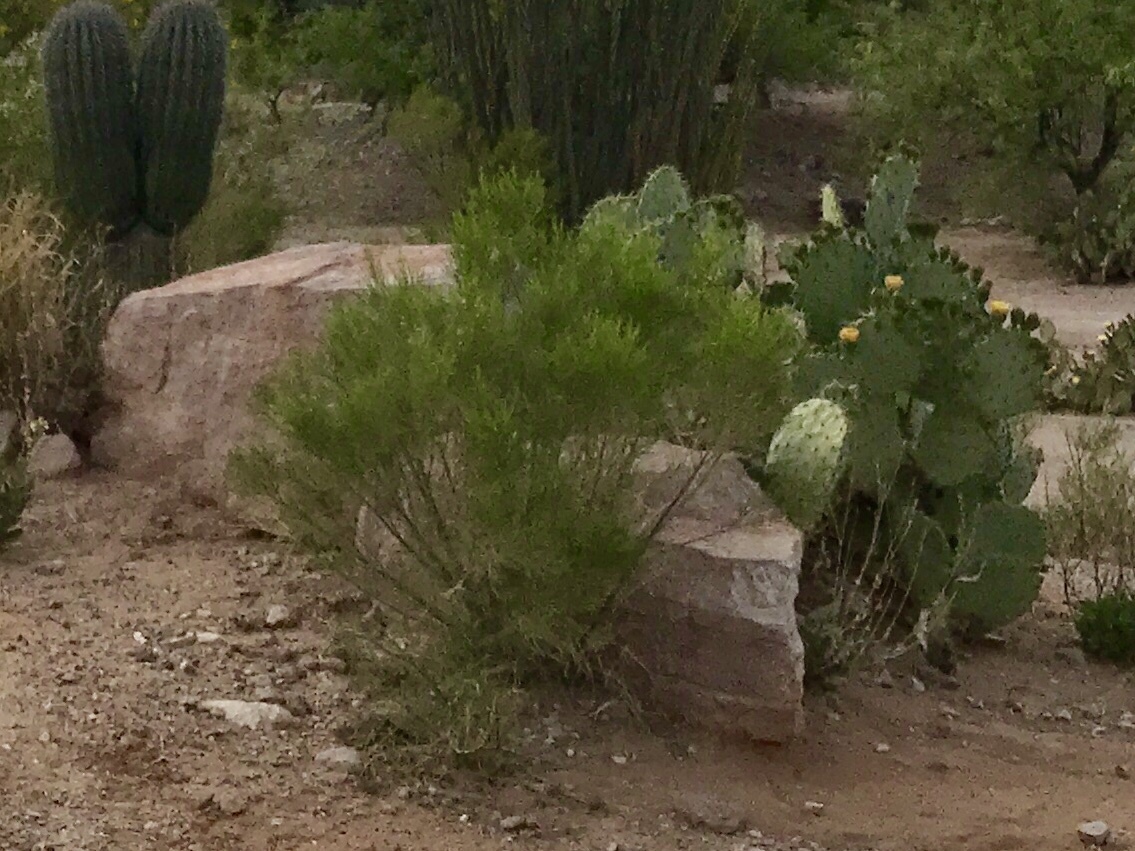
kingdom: Plantae
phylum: Tracheophyta
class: Magnoliopsida
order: Asterales
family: Asteraceae
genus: Baccharis
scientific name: Baccharis sarothroides
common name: Desert-broom
